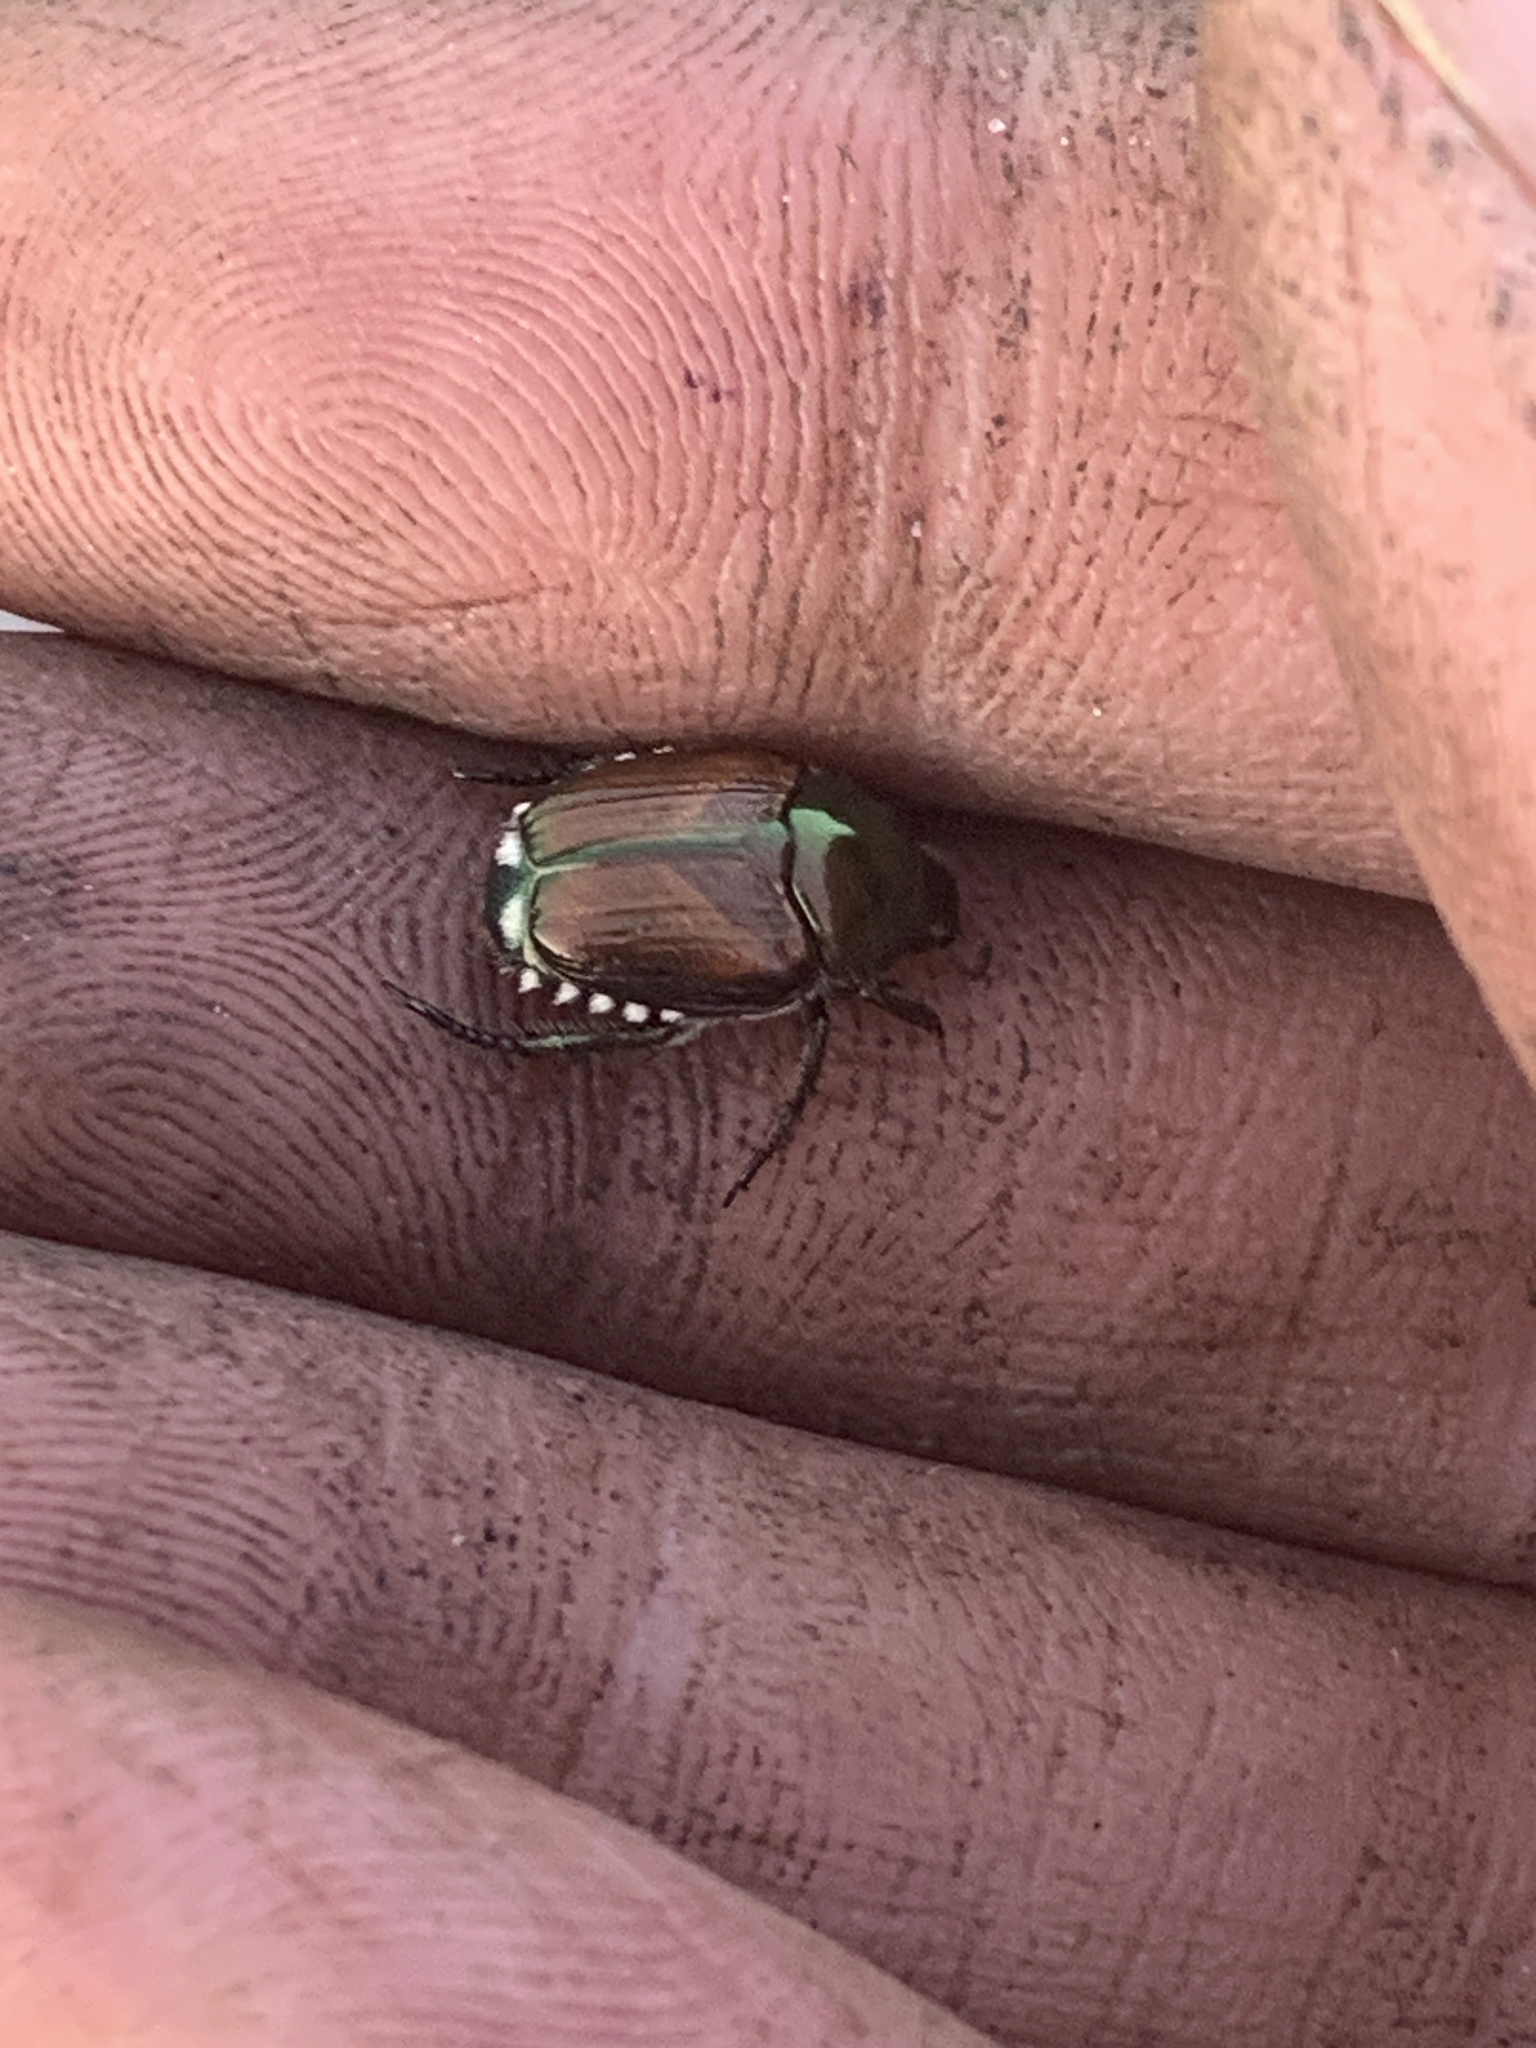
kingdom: Animalia
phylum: Arthropoda
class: Insecta
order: Coleoptera
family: Scarabaeidae
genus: Popillia
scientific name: Popillia japonica
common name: Japanese beetle
